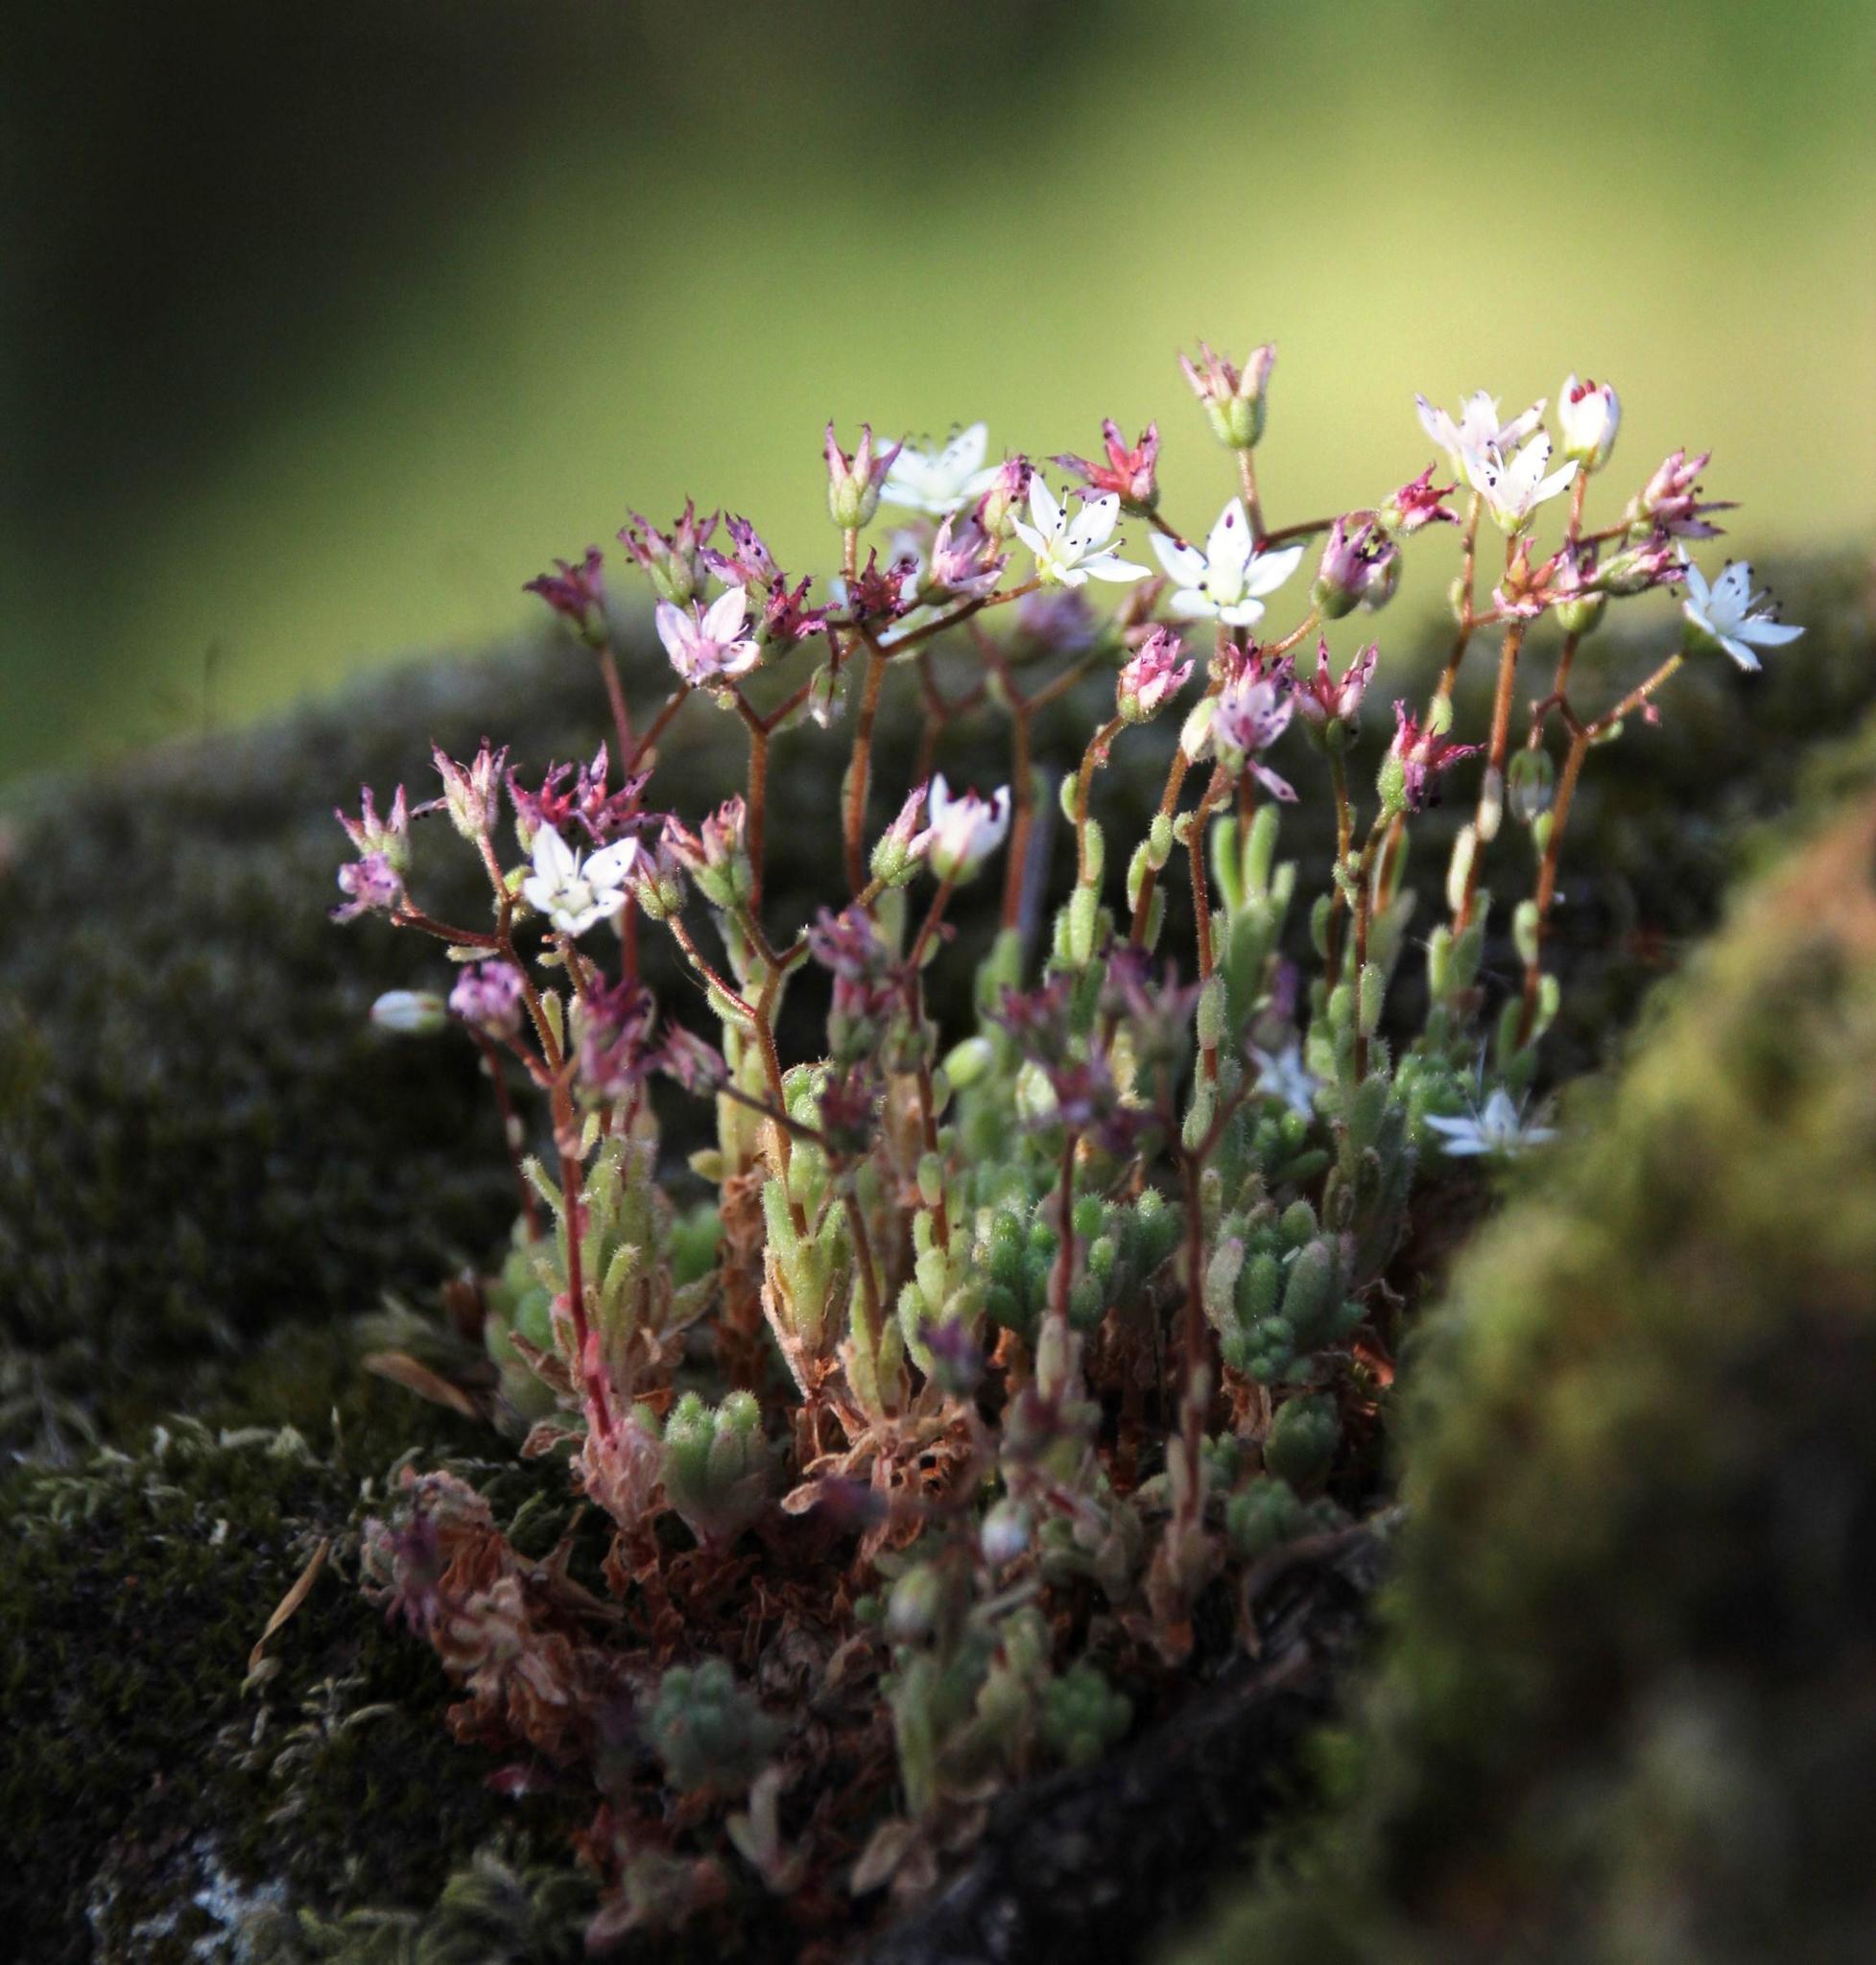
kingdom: Plantae
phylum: Tracheophyta
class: Magnoliopsida
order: Saxifragales
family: Crassulaceae
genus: Sedum
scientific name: Sedum hirsutum
